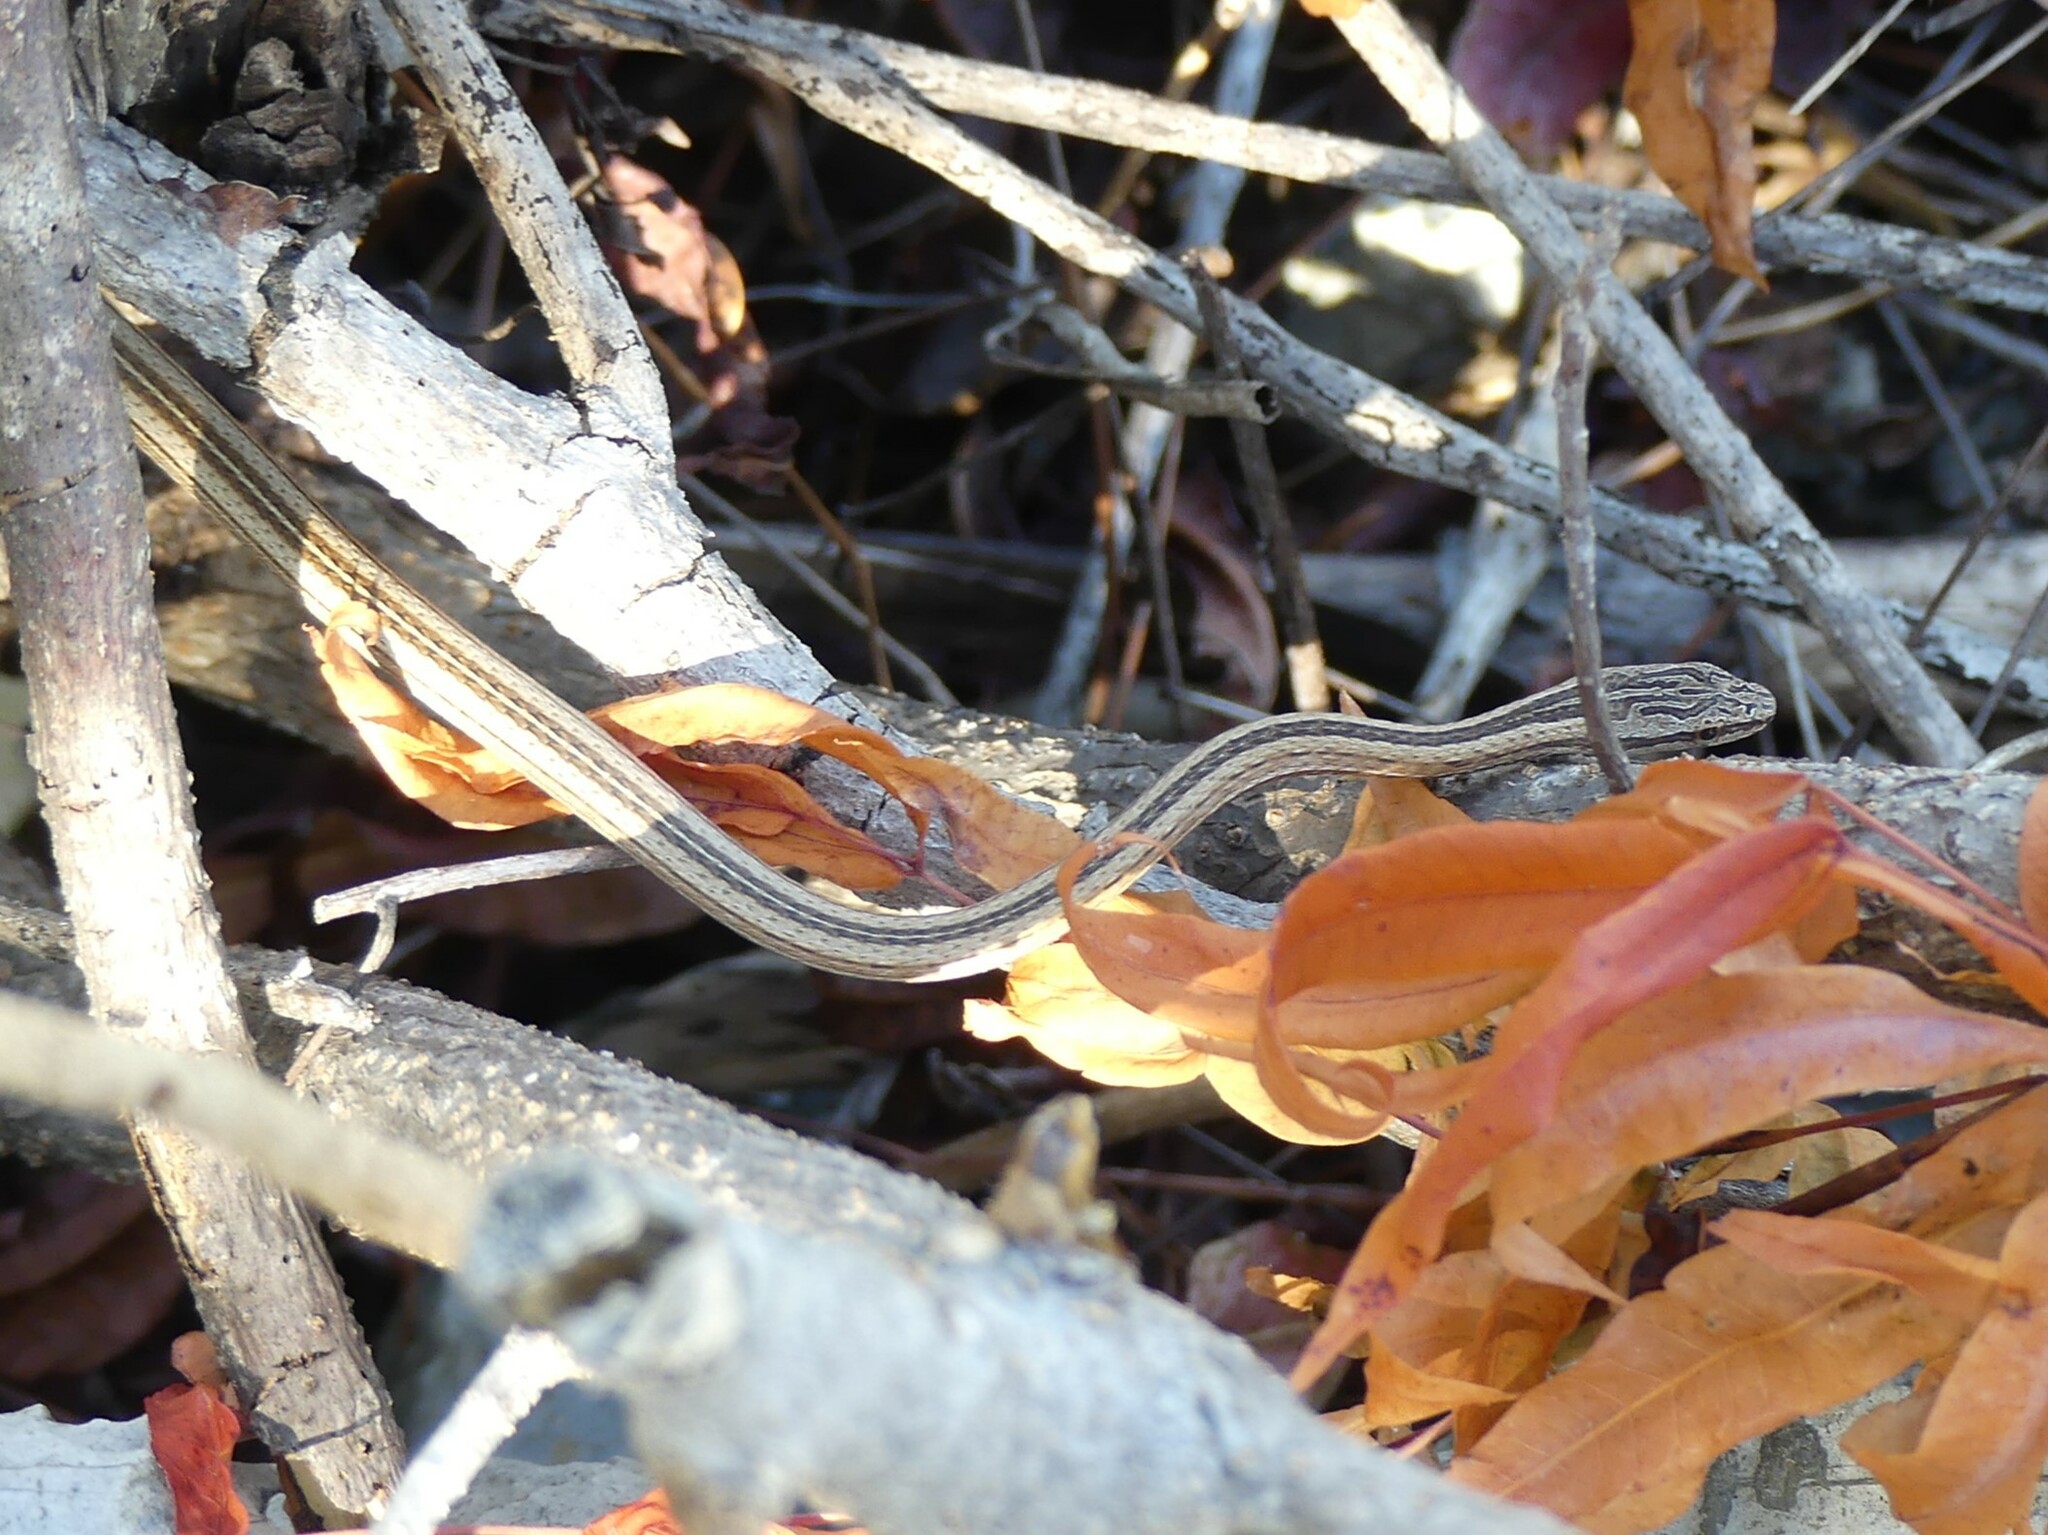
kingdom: Animalia
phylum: Chordata
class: Squamata
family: Psammophiidae
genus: Mimophis
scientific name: Mimophis occultus
